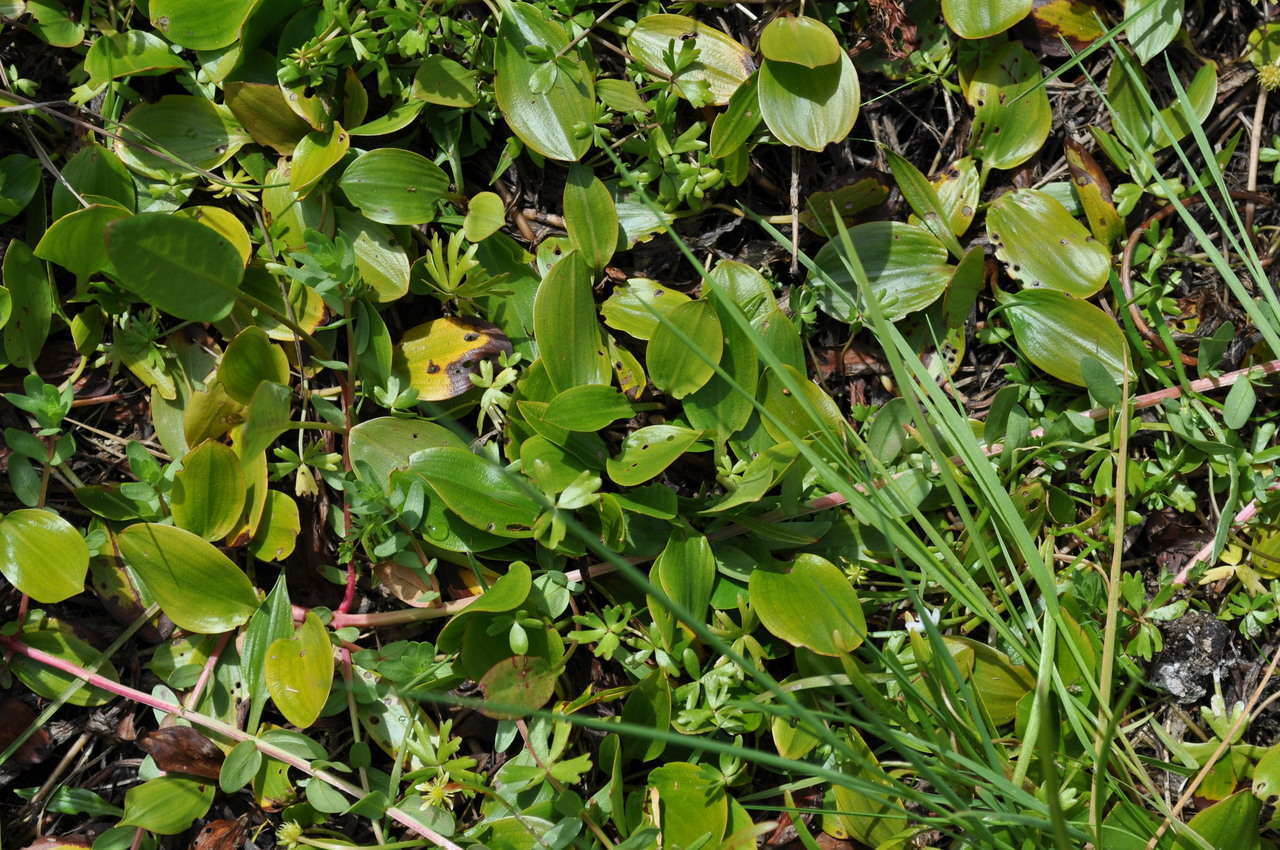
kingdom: Plantae
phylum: Tracheophyta
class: Liliopsida
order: Alismatales
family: Potamogetonaceae
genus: Potamogeton
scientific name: Potamogeton cheesemanii
